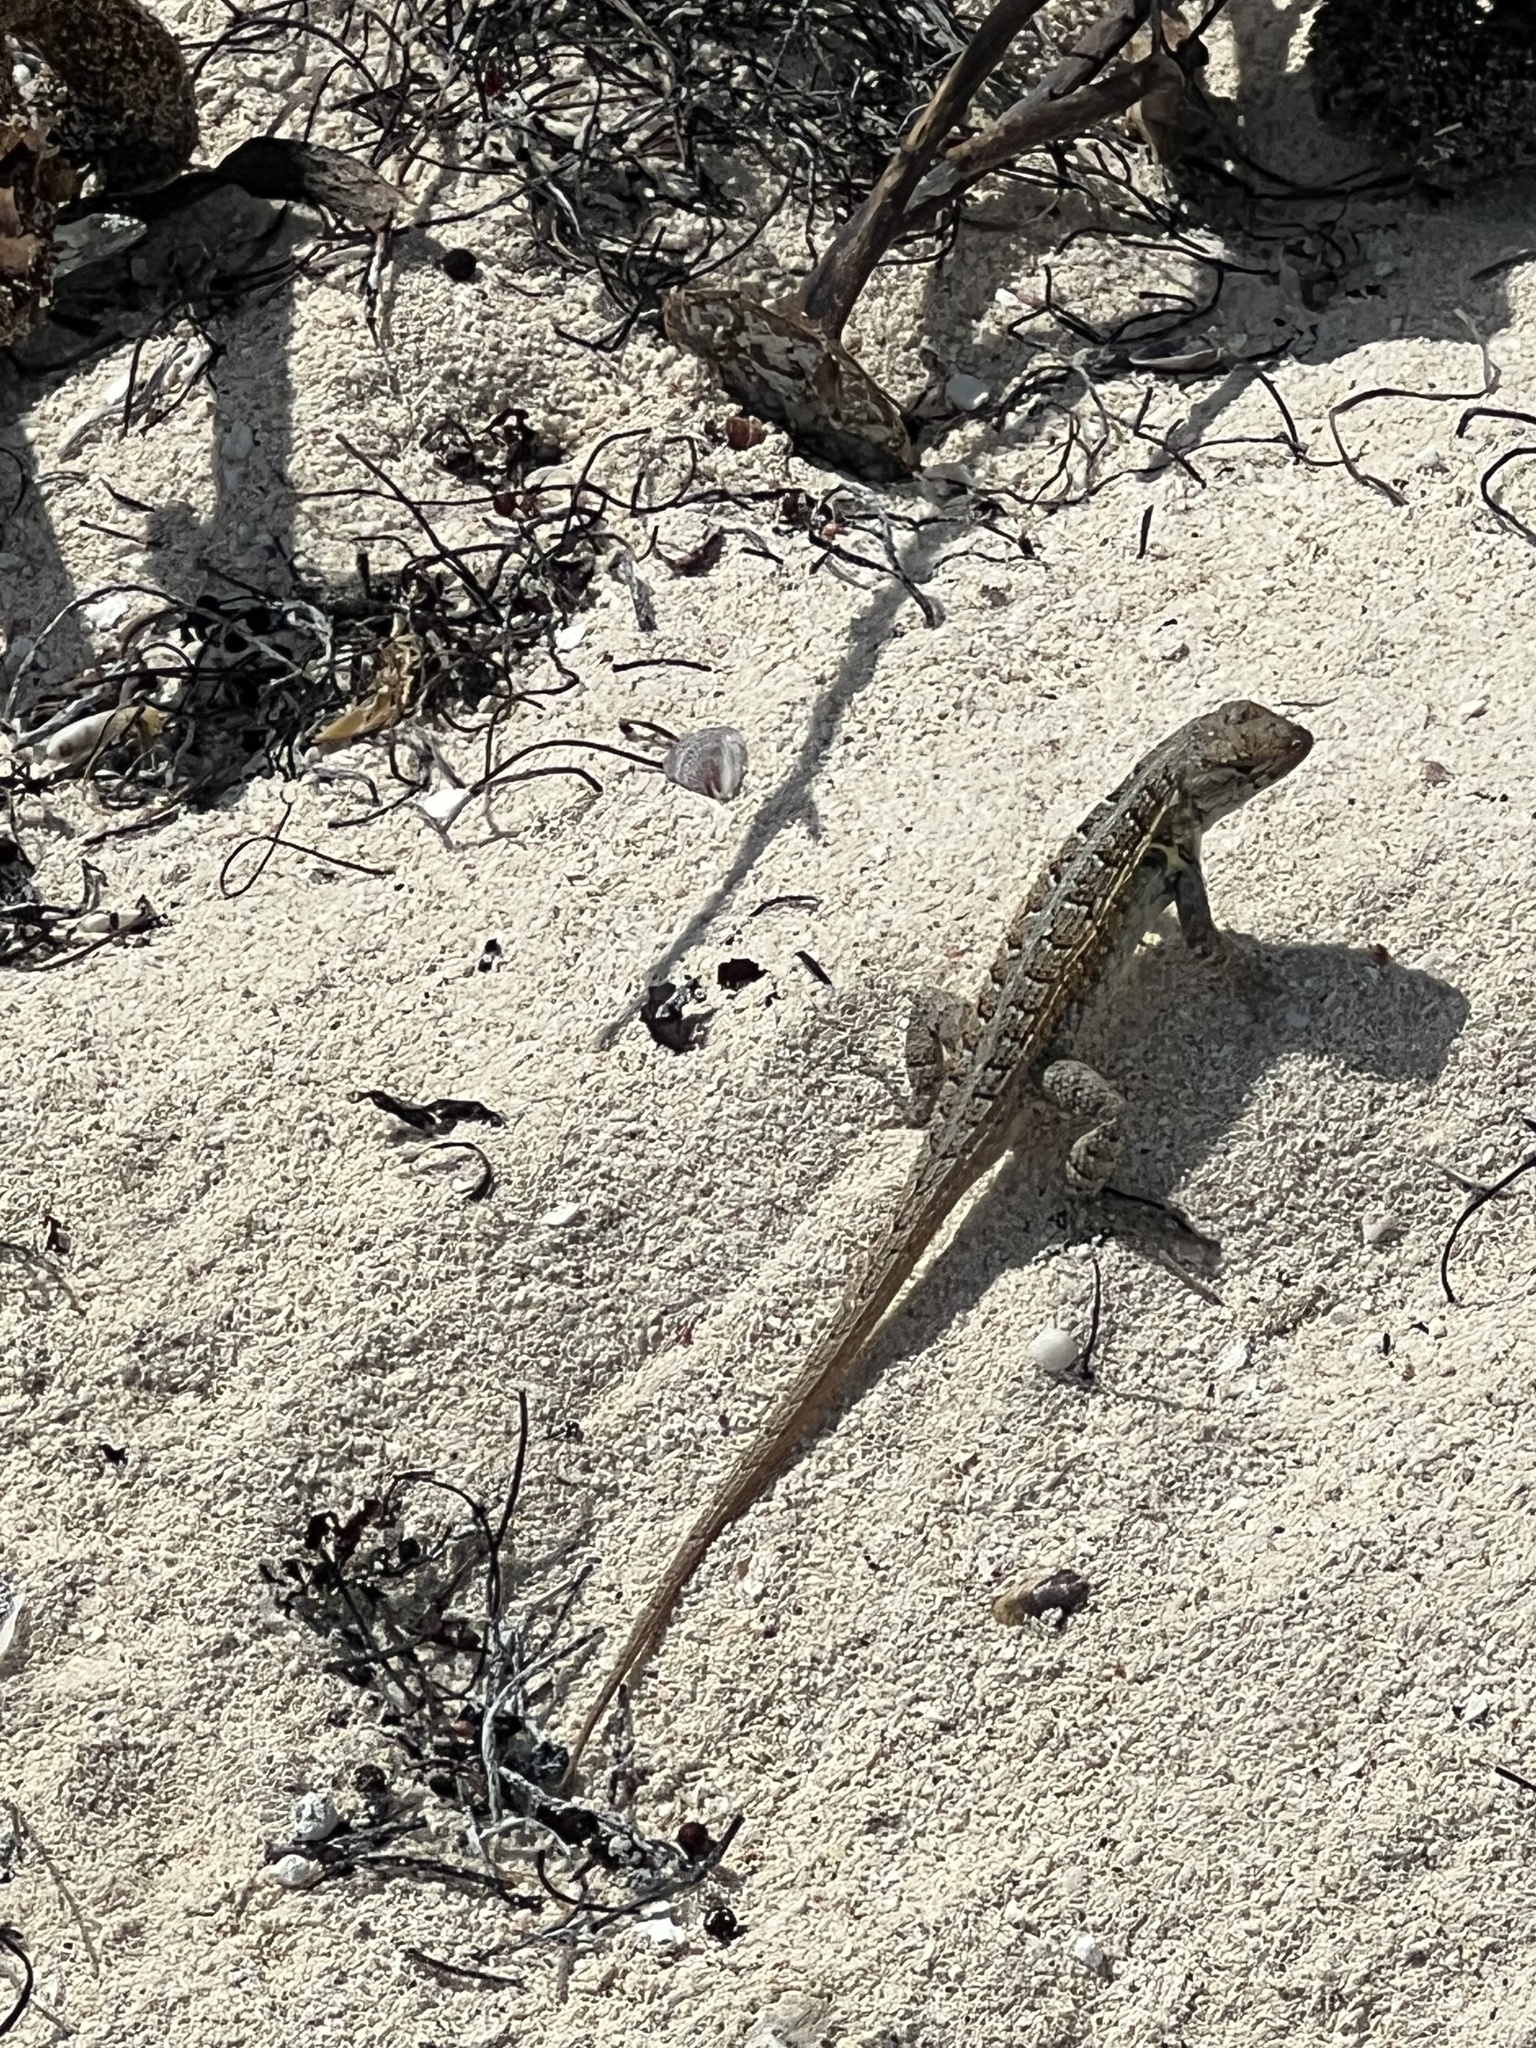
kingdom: Animalia
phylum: Chordata
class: Squamata
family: Phrynosomatidae
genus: Sceloporus
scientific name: Sceloporus cozumelae
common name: Cozumel spiny lizard
